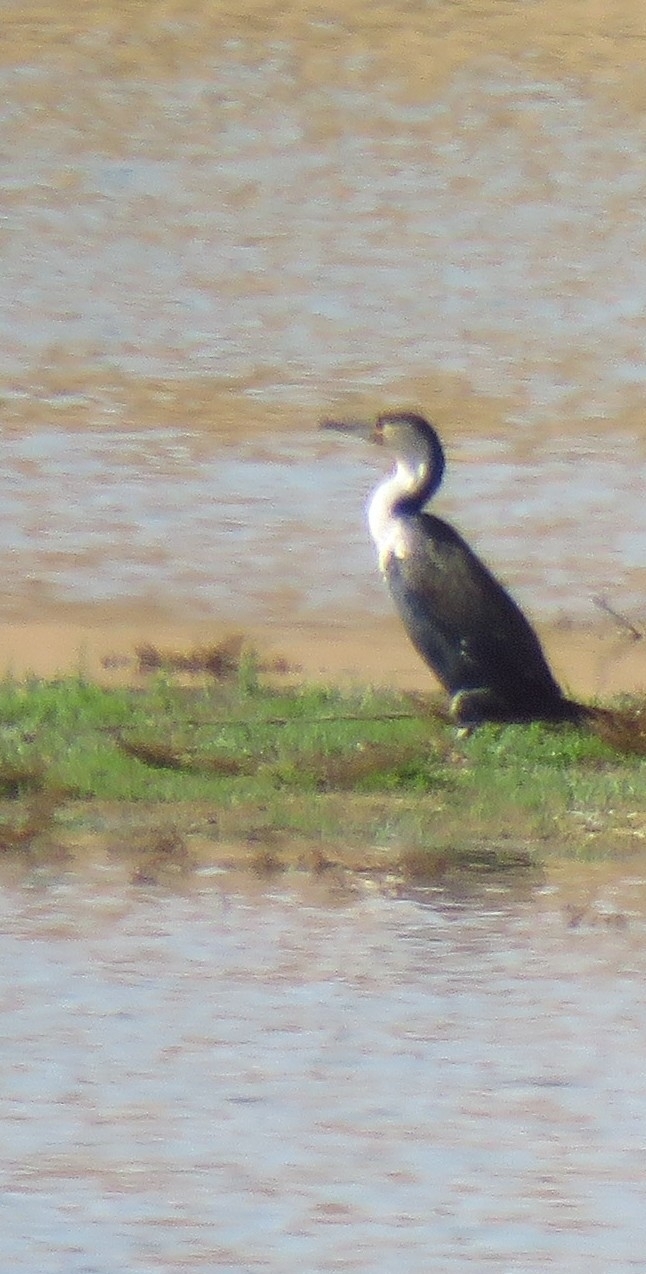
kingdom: Animalia
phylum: Chordata
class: Aves
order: Suliformes
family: Phalacrocoracidae
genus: Phalacrocorax
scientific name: Phalacrocorax carbo
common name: Great cormorant
